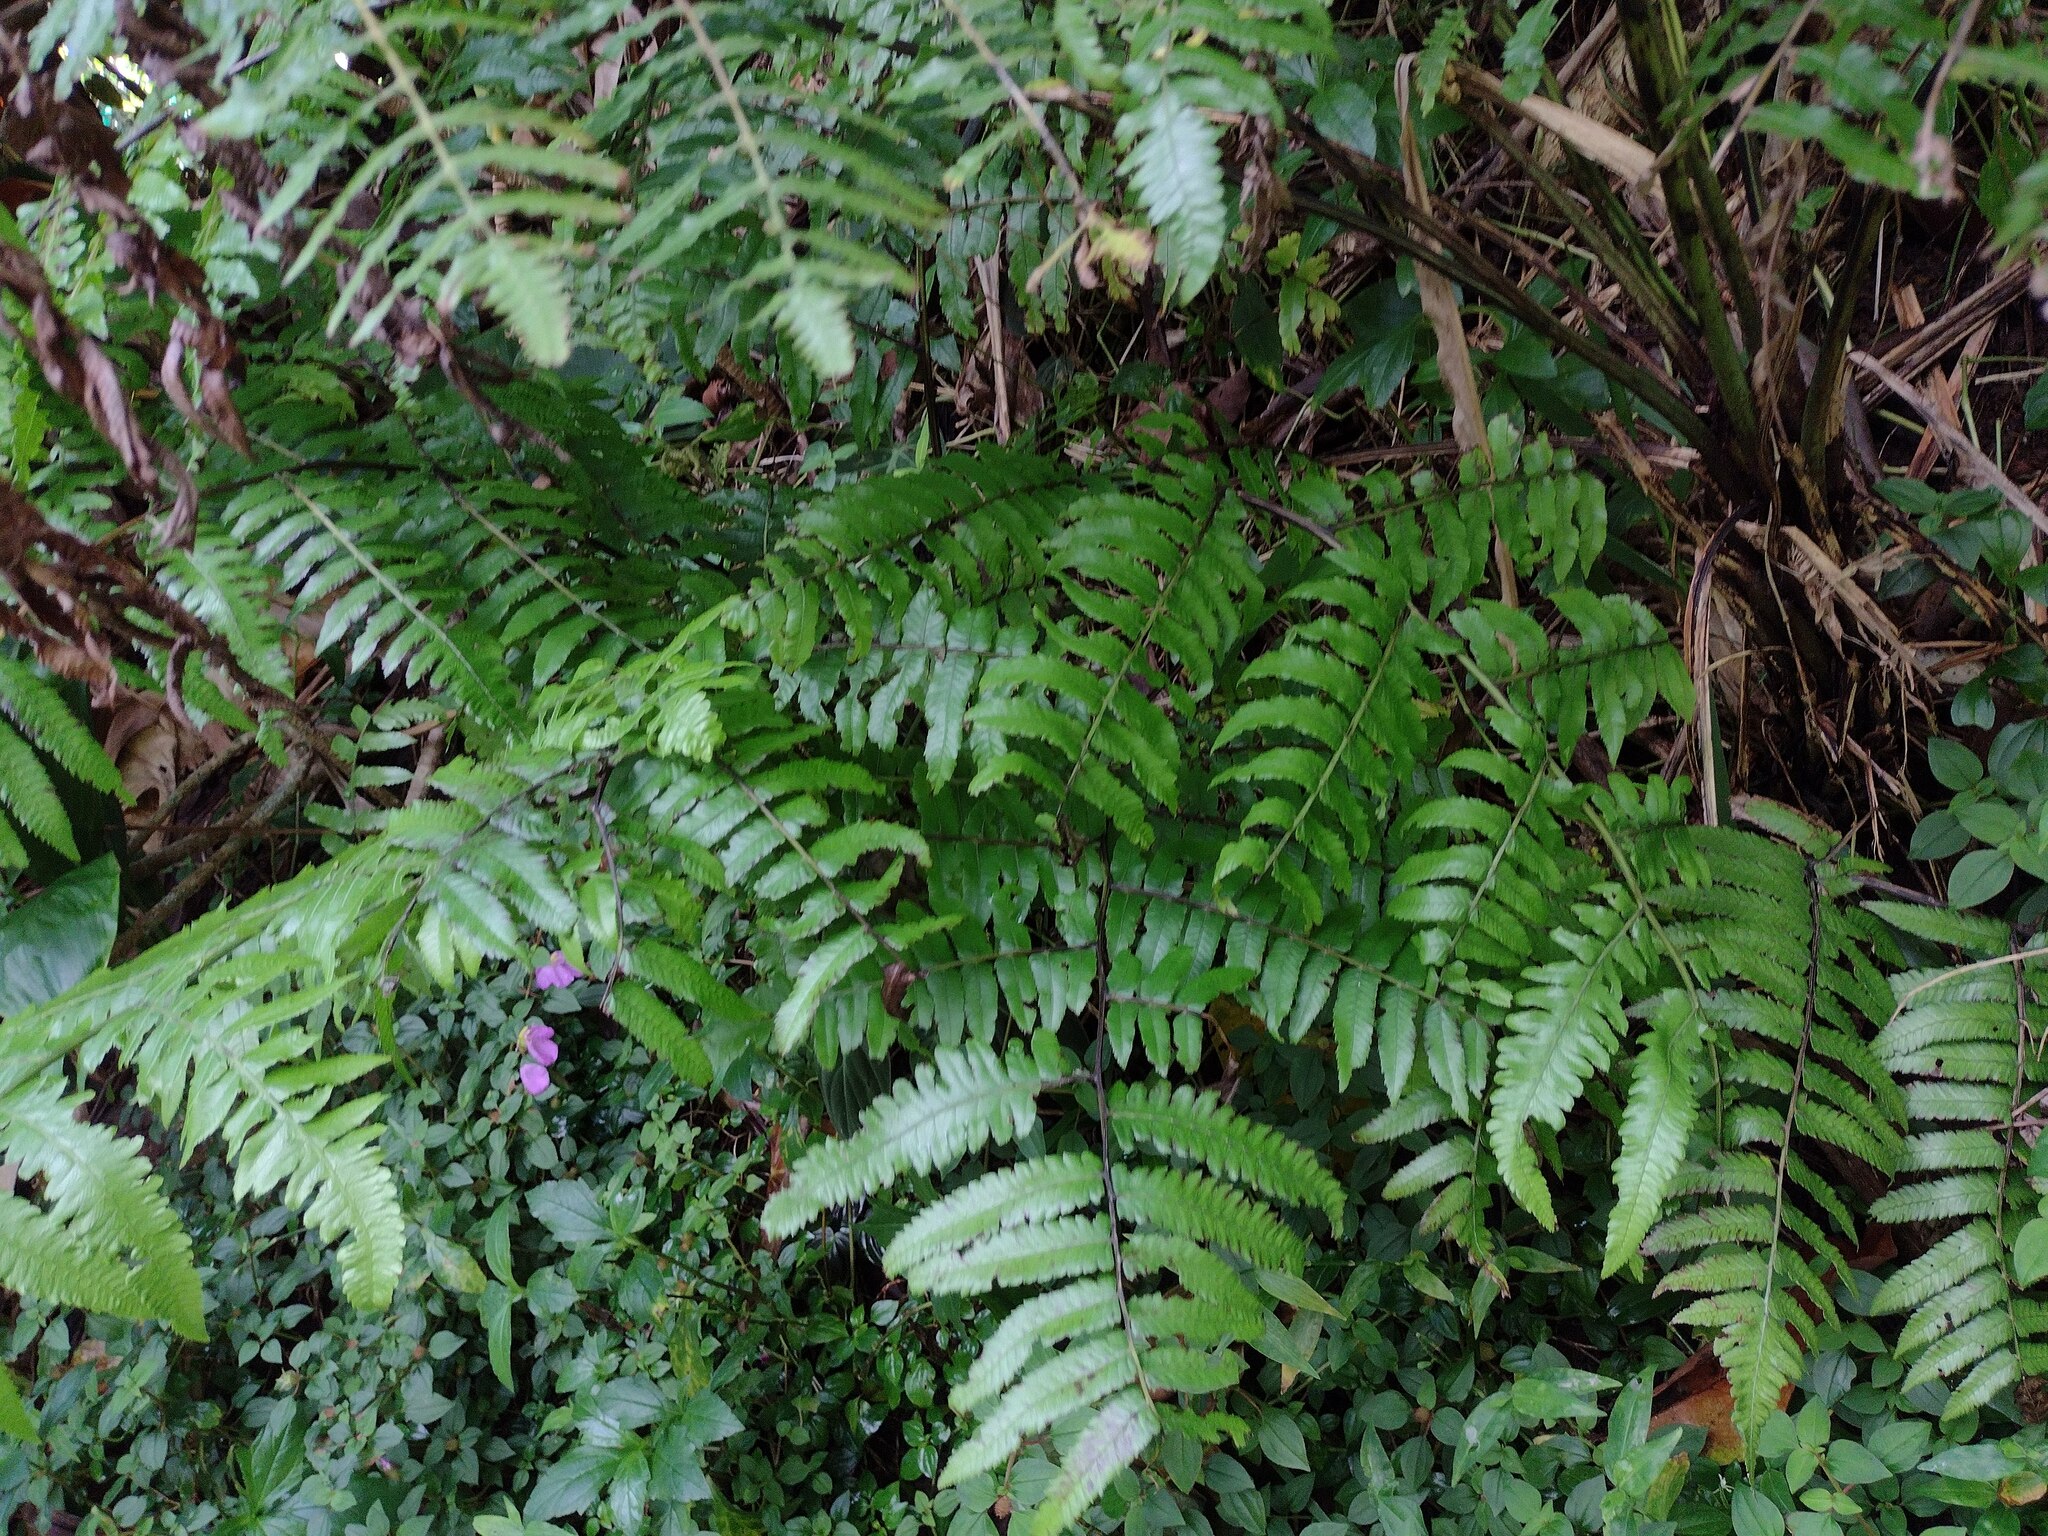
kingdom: Plantae
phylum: Tracheophyta
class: Polypodiopsida
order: Polypodiales
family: Athyriaceae
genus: Diplazium
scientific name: Diplazium esculentum
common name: Vegetable fern
